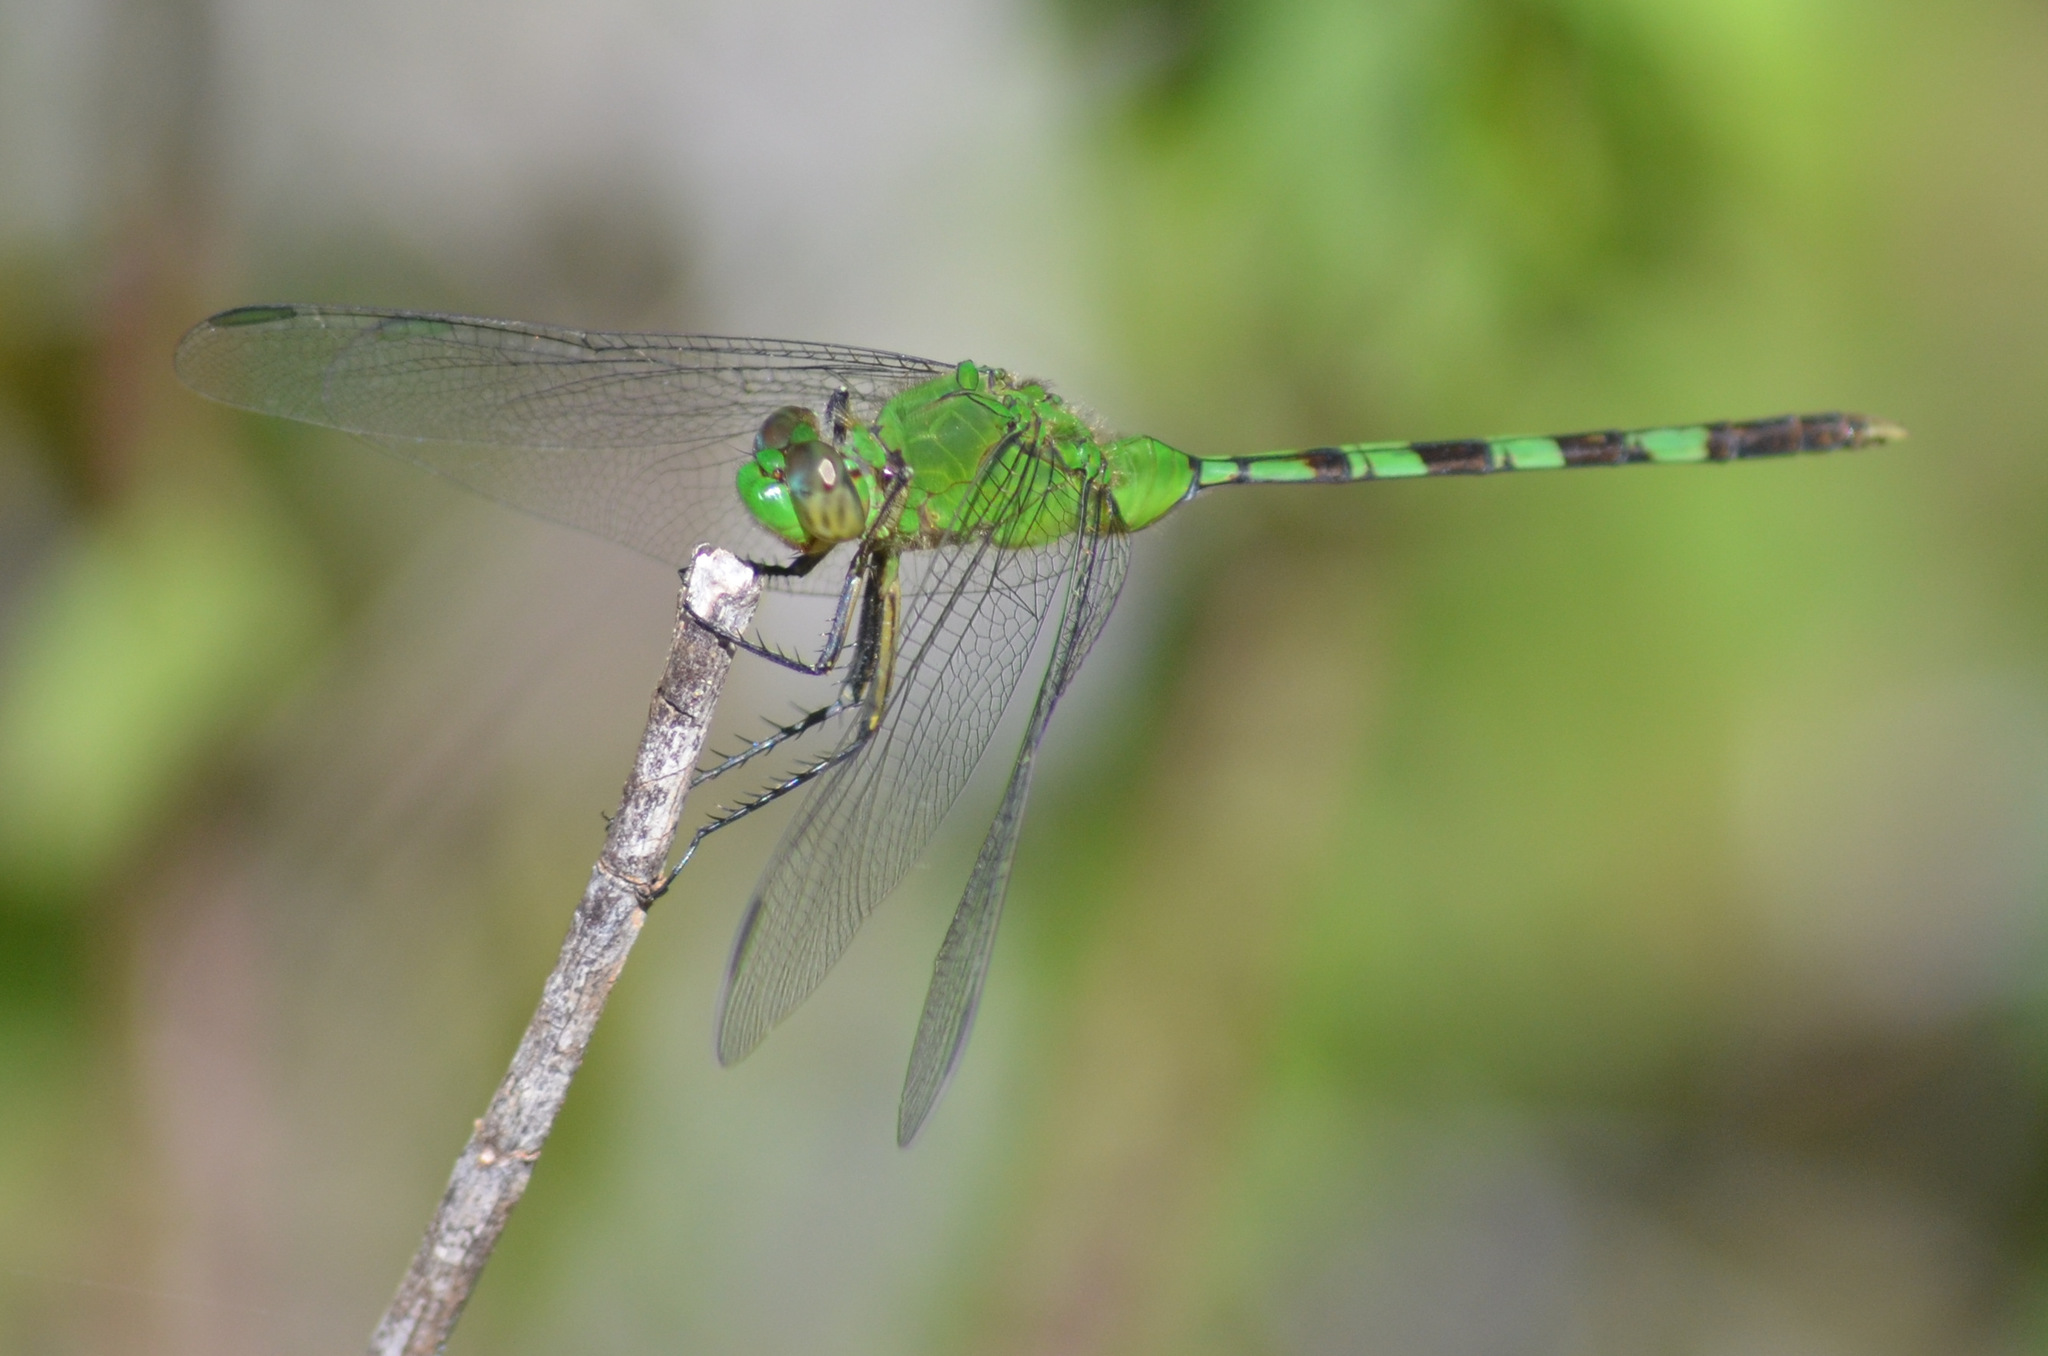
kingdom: Animalia
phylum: Arthropoda
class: Insecta
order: Odonata
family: Libellulidae
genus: Erythemis
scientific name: Erythemis vesiculosa
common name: Great pondhawk
